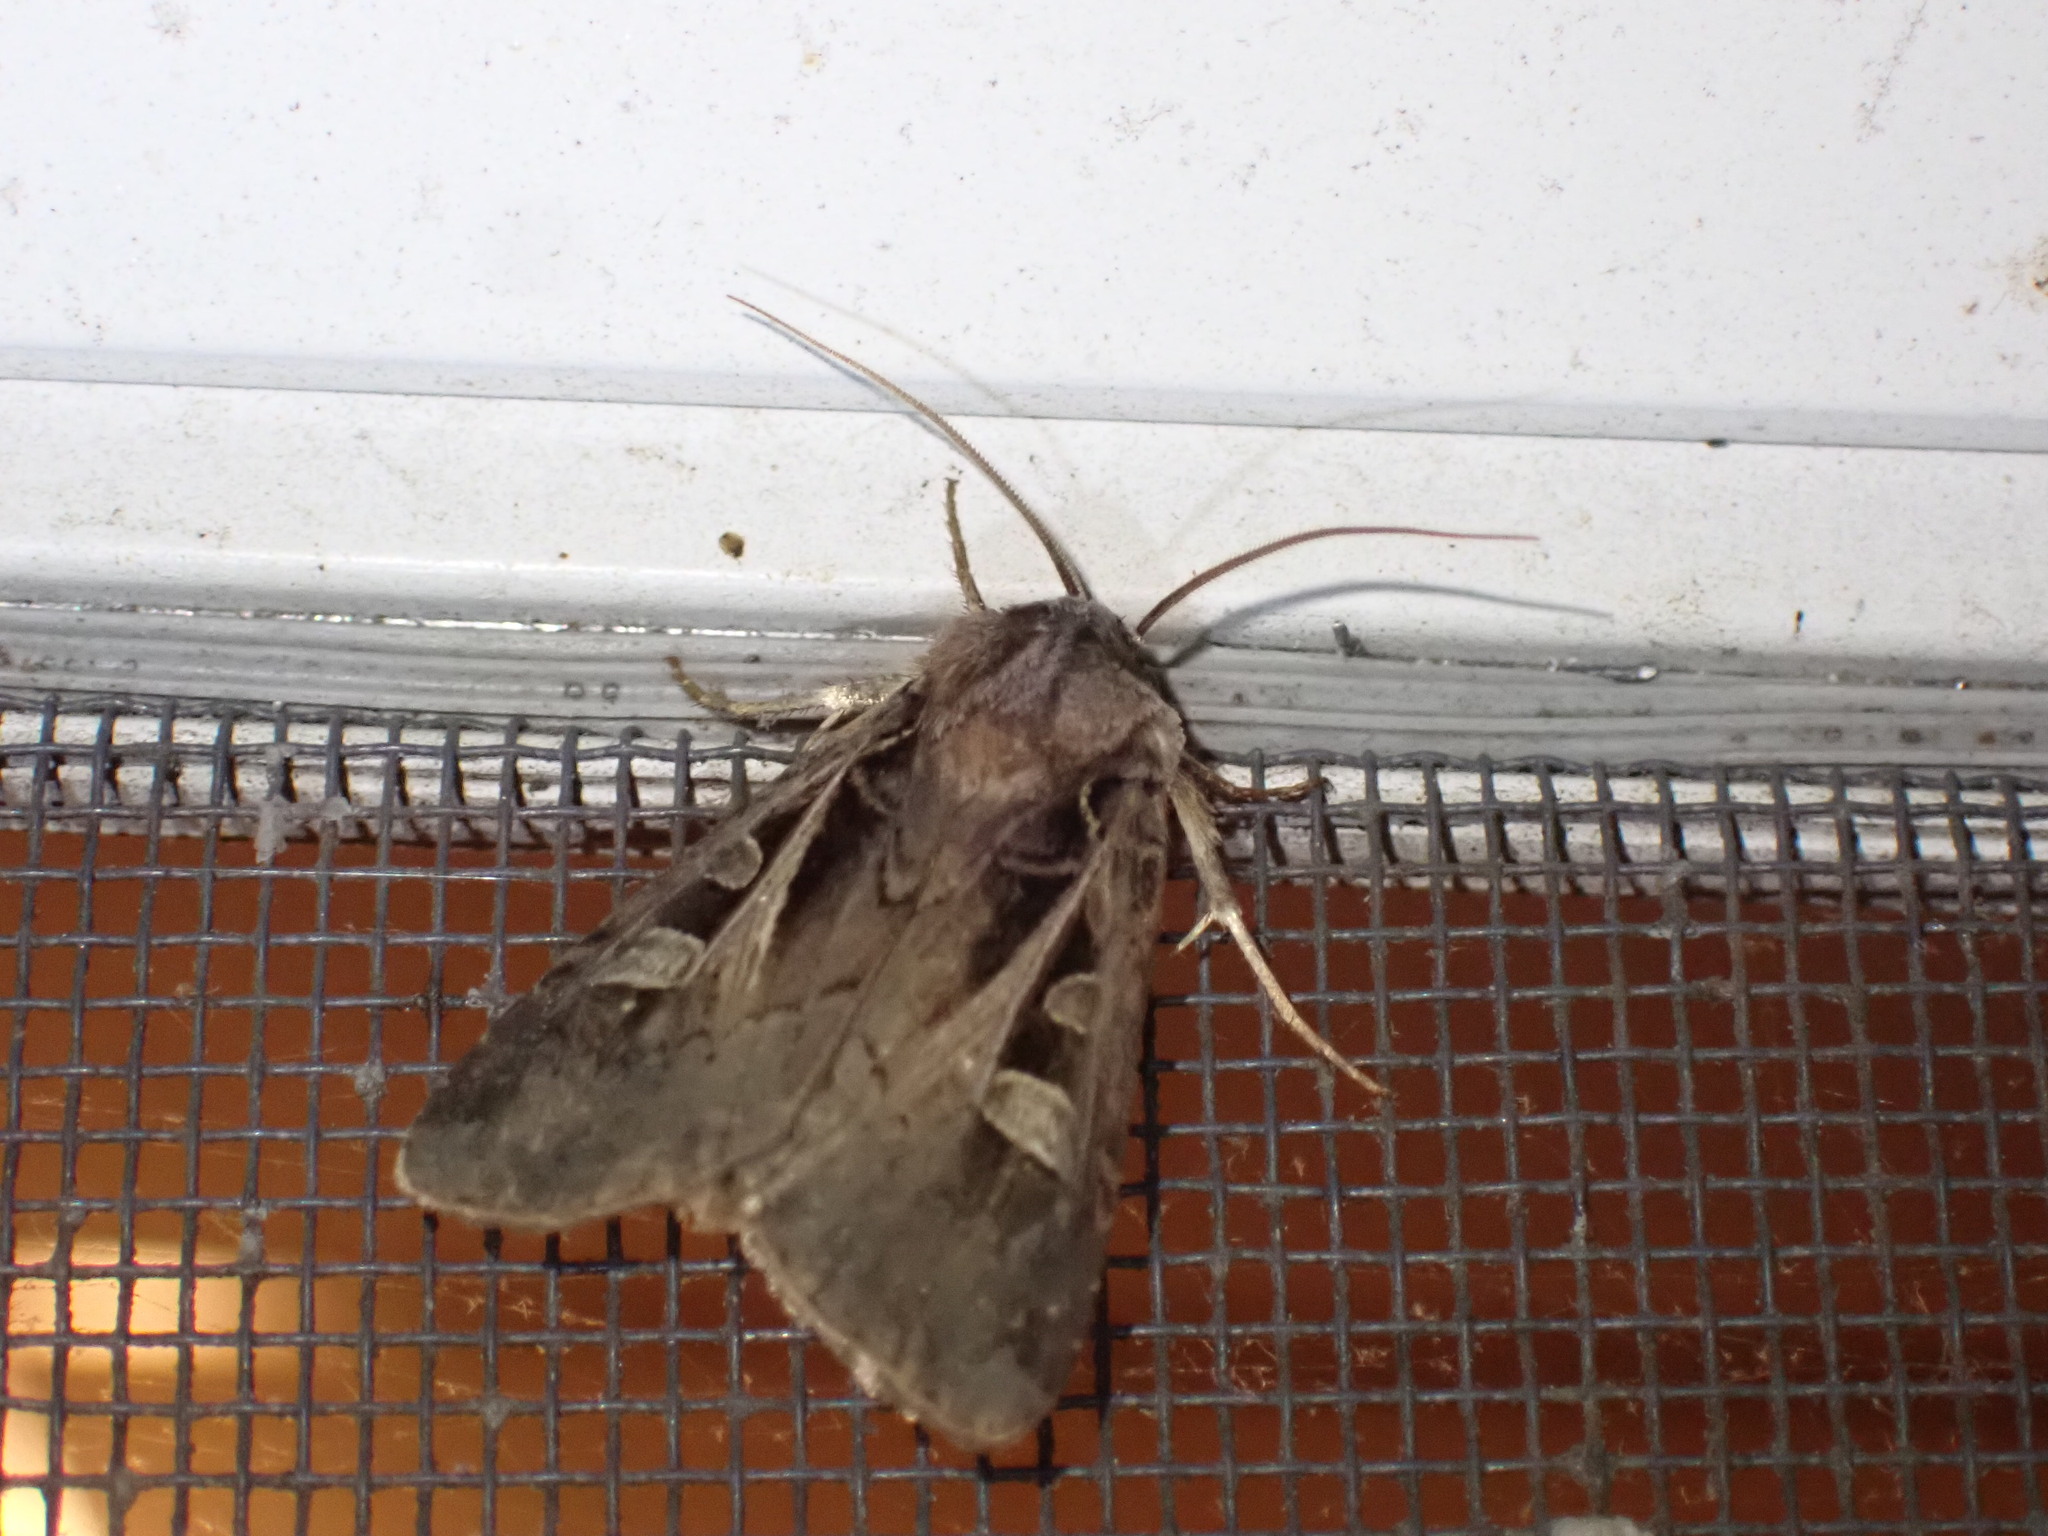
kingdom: Animalia
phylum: Arthropoda
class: Insecta
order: Lepidoptera
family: Noctuidae
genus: Feltia
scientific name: Feltia herilis
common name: Master's dart
